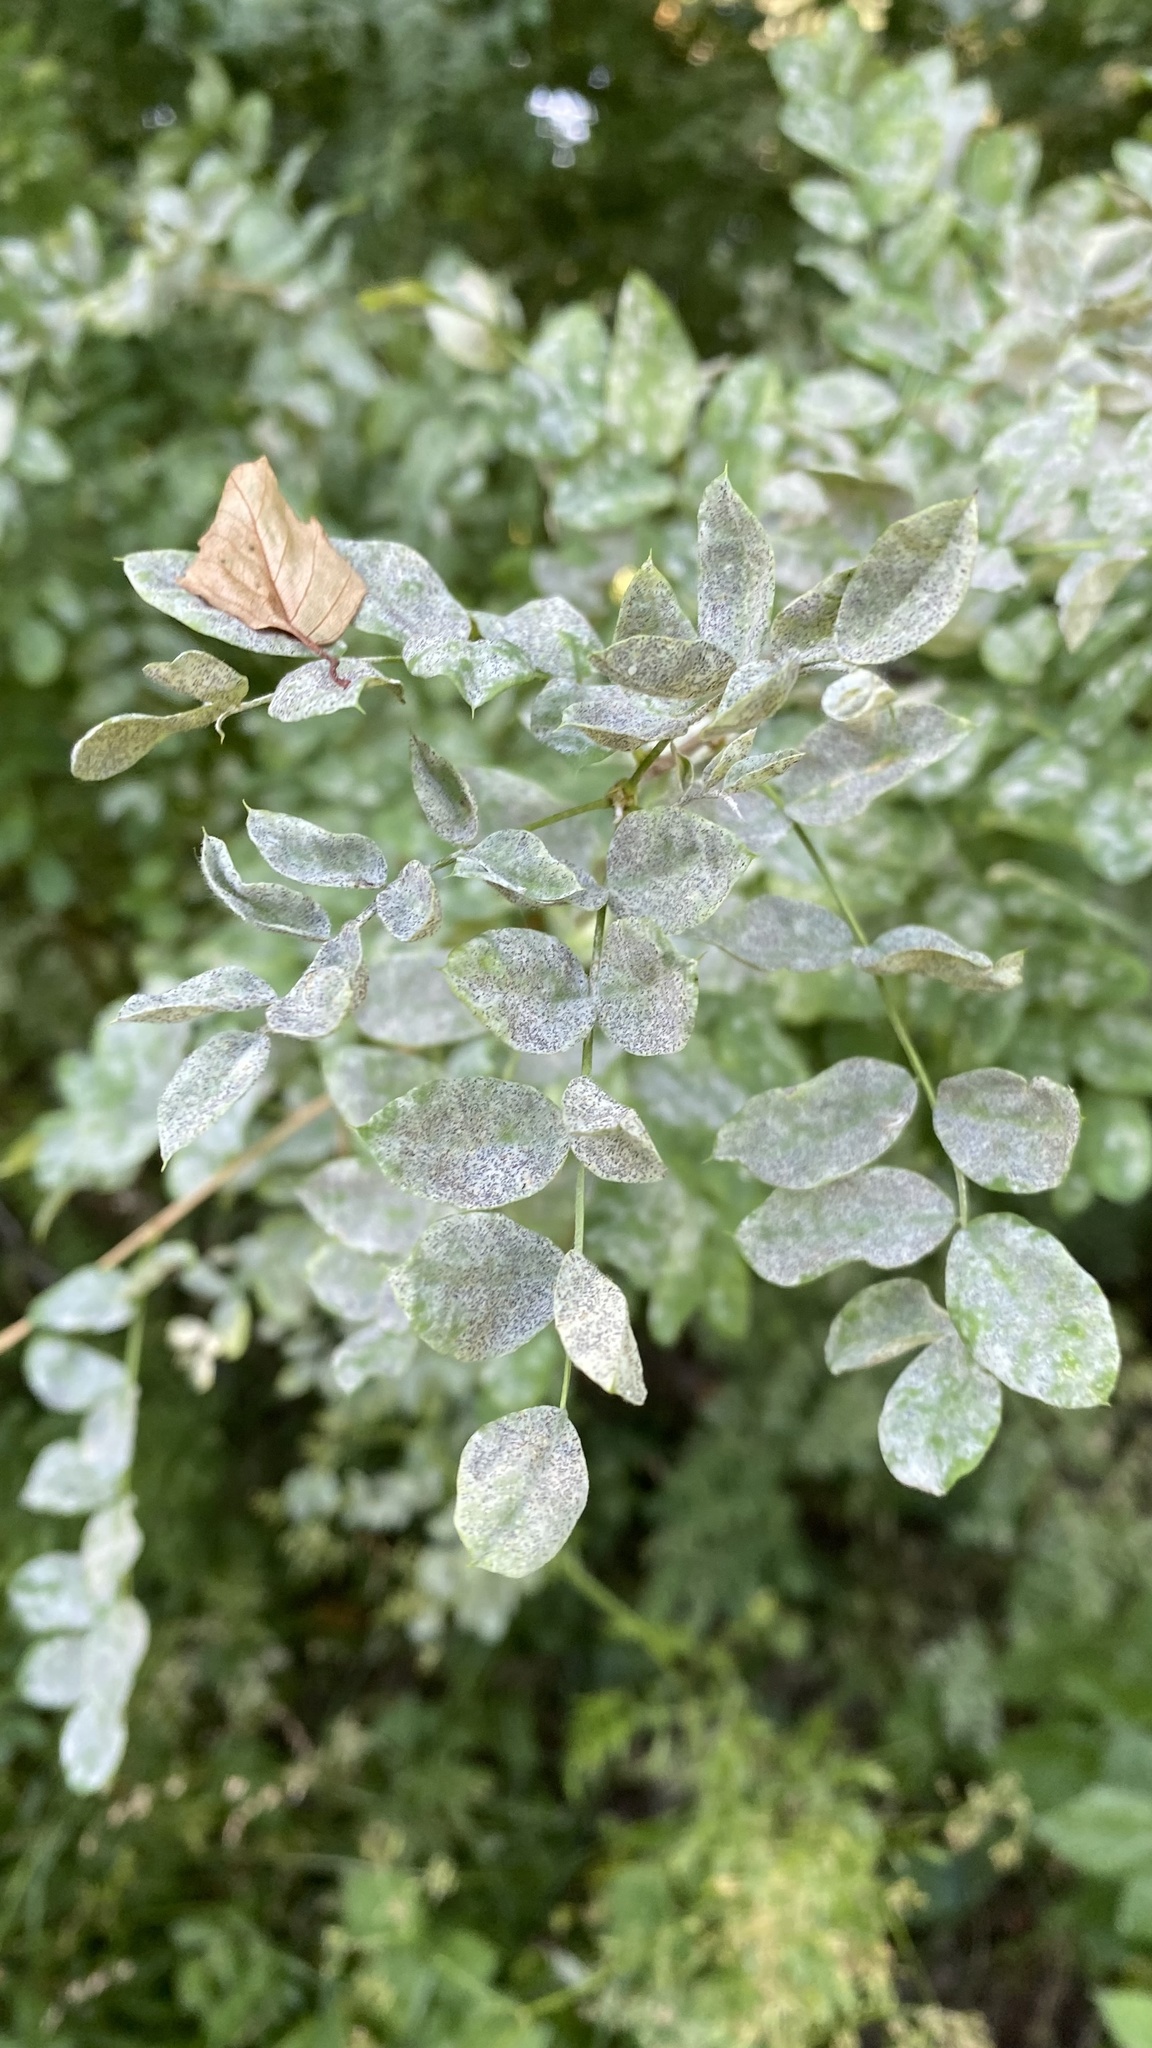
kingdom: Fungi
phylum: Ascomycota
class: Leotiomycetes
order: Helotiales
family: Erysiphaceae
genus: Erysiphe
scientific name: Erysiphe palczewskii
